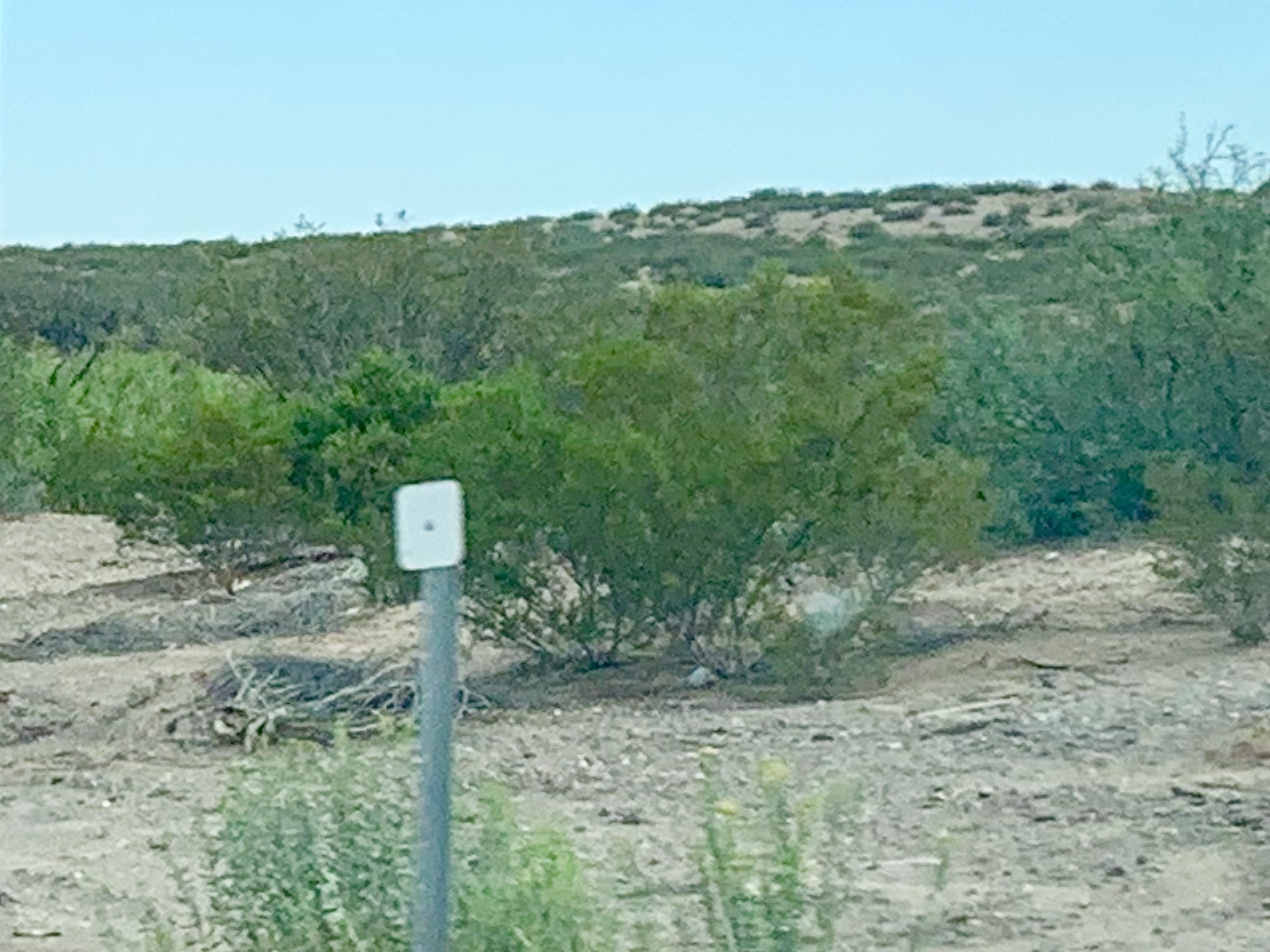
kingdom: Plantae
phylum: Tracheophyta
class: Magnoliopsida
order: Zygophyllales
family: Zygophyllaceae
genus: Larrea
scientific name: Larrea tridentata
